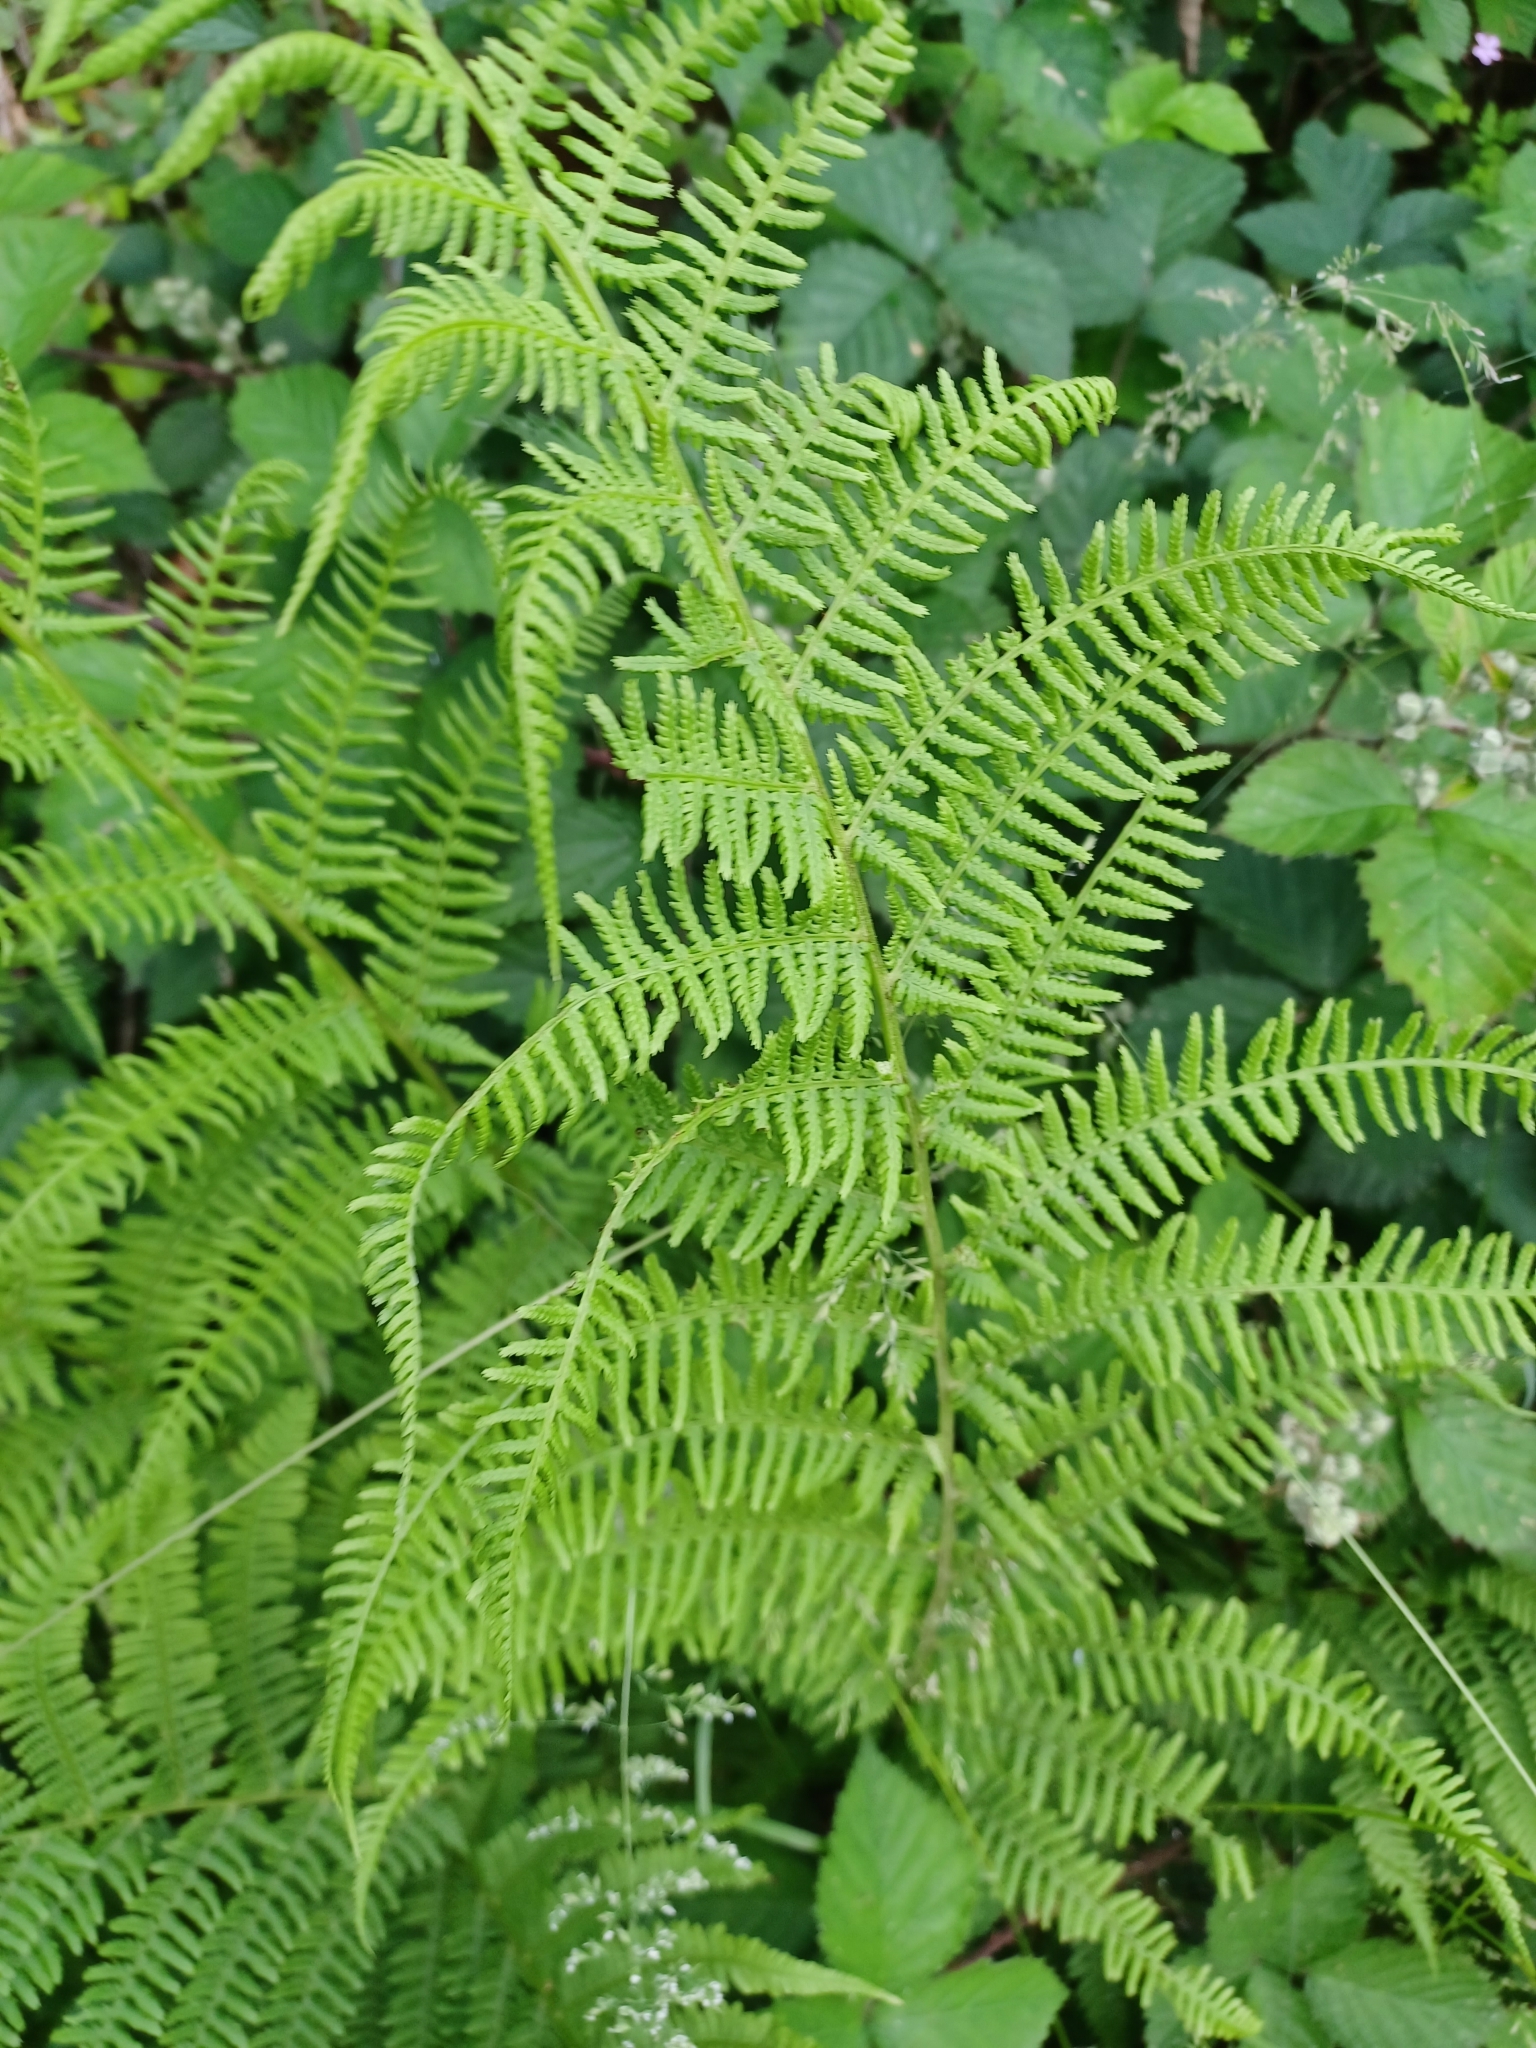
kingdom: Plantae
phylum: Tracheophyta
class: Polypodiopsida
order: Polypodiales
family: Athyriaceae
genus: Athyrium
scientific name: Athyrium filix-femina
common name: Lady fern
